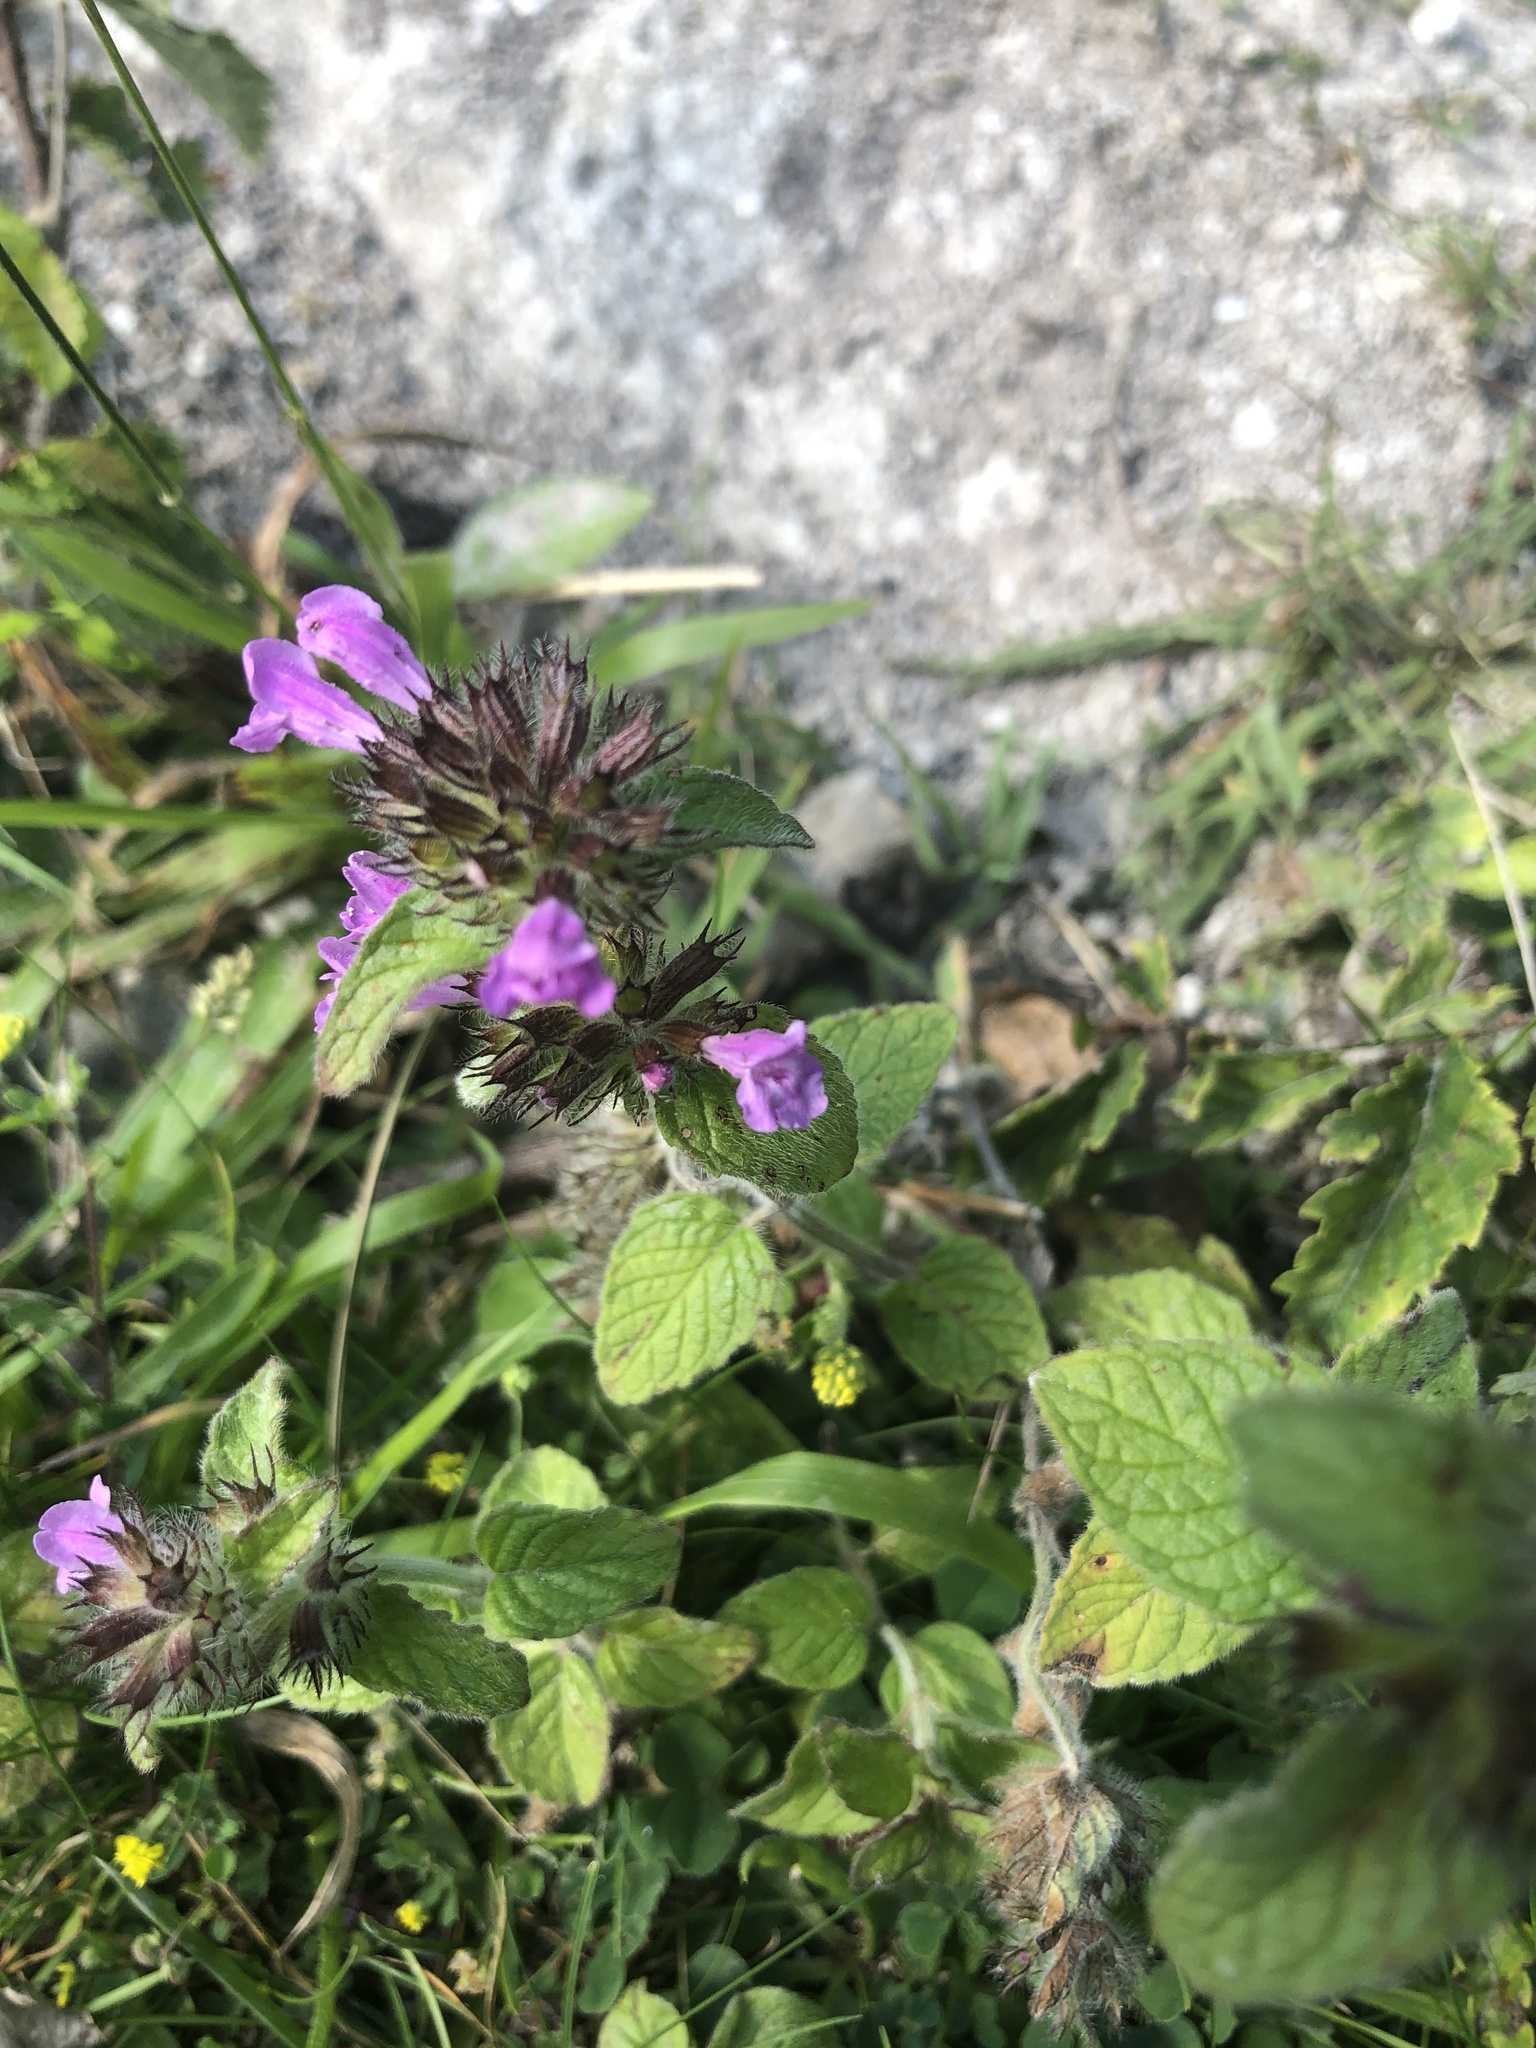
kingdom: Plantae
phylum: Tracheophyta
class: Magnoliopsida
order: Lamiales
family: Lamiaceae
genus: Clinopodium
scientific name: Clinopodium vulgare
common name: Wild basil
